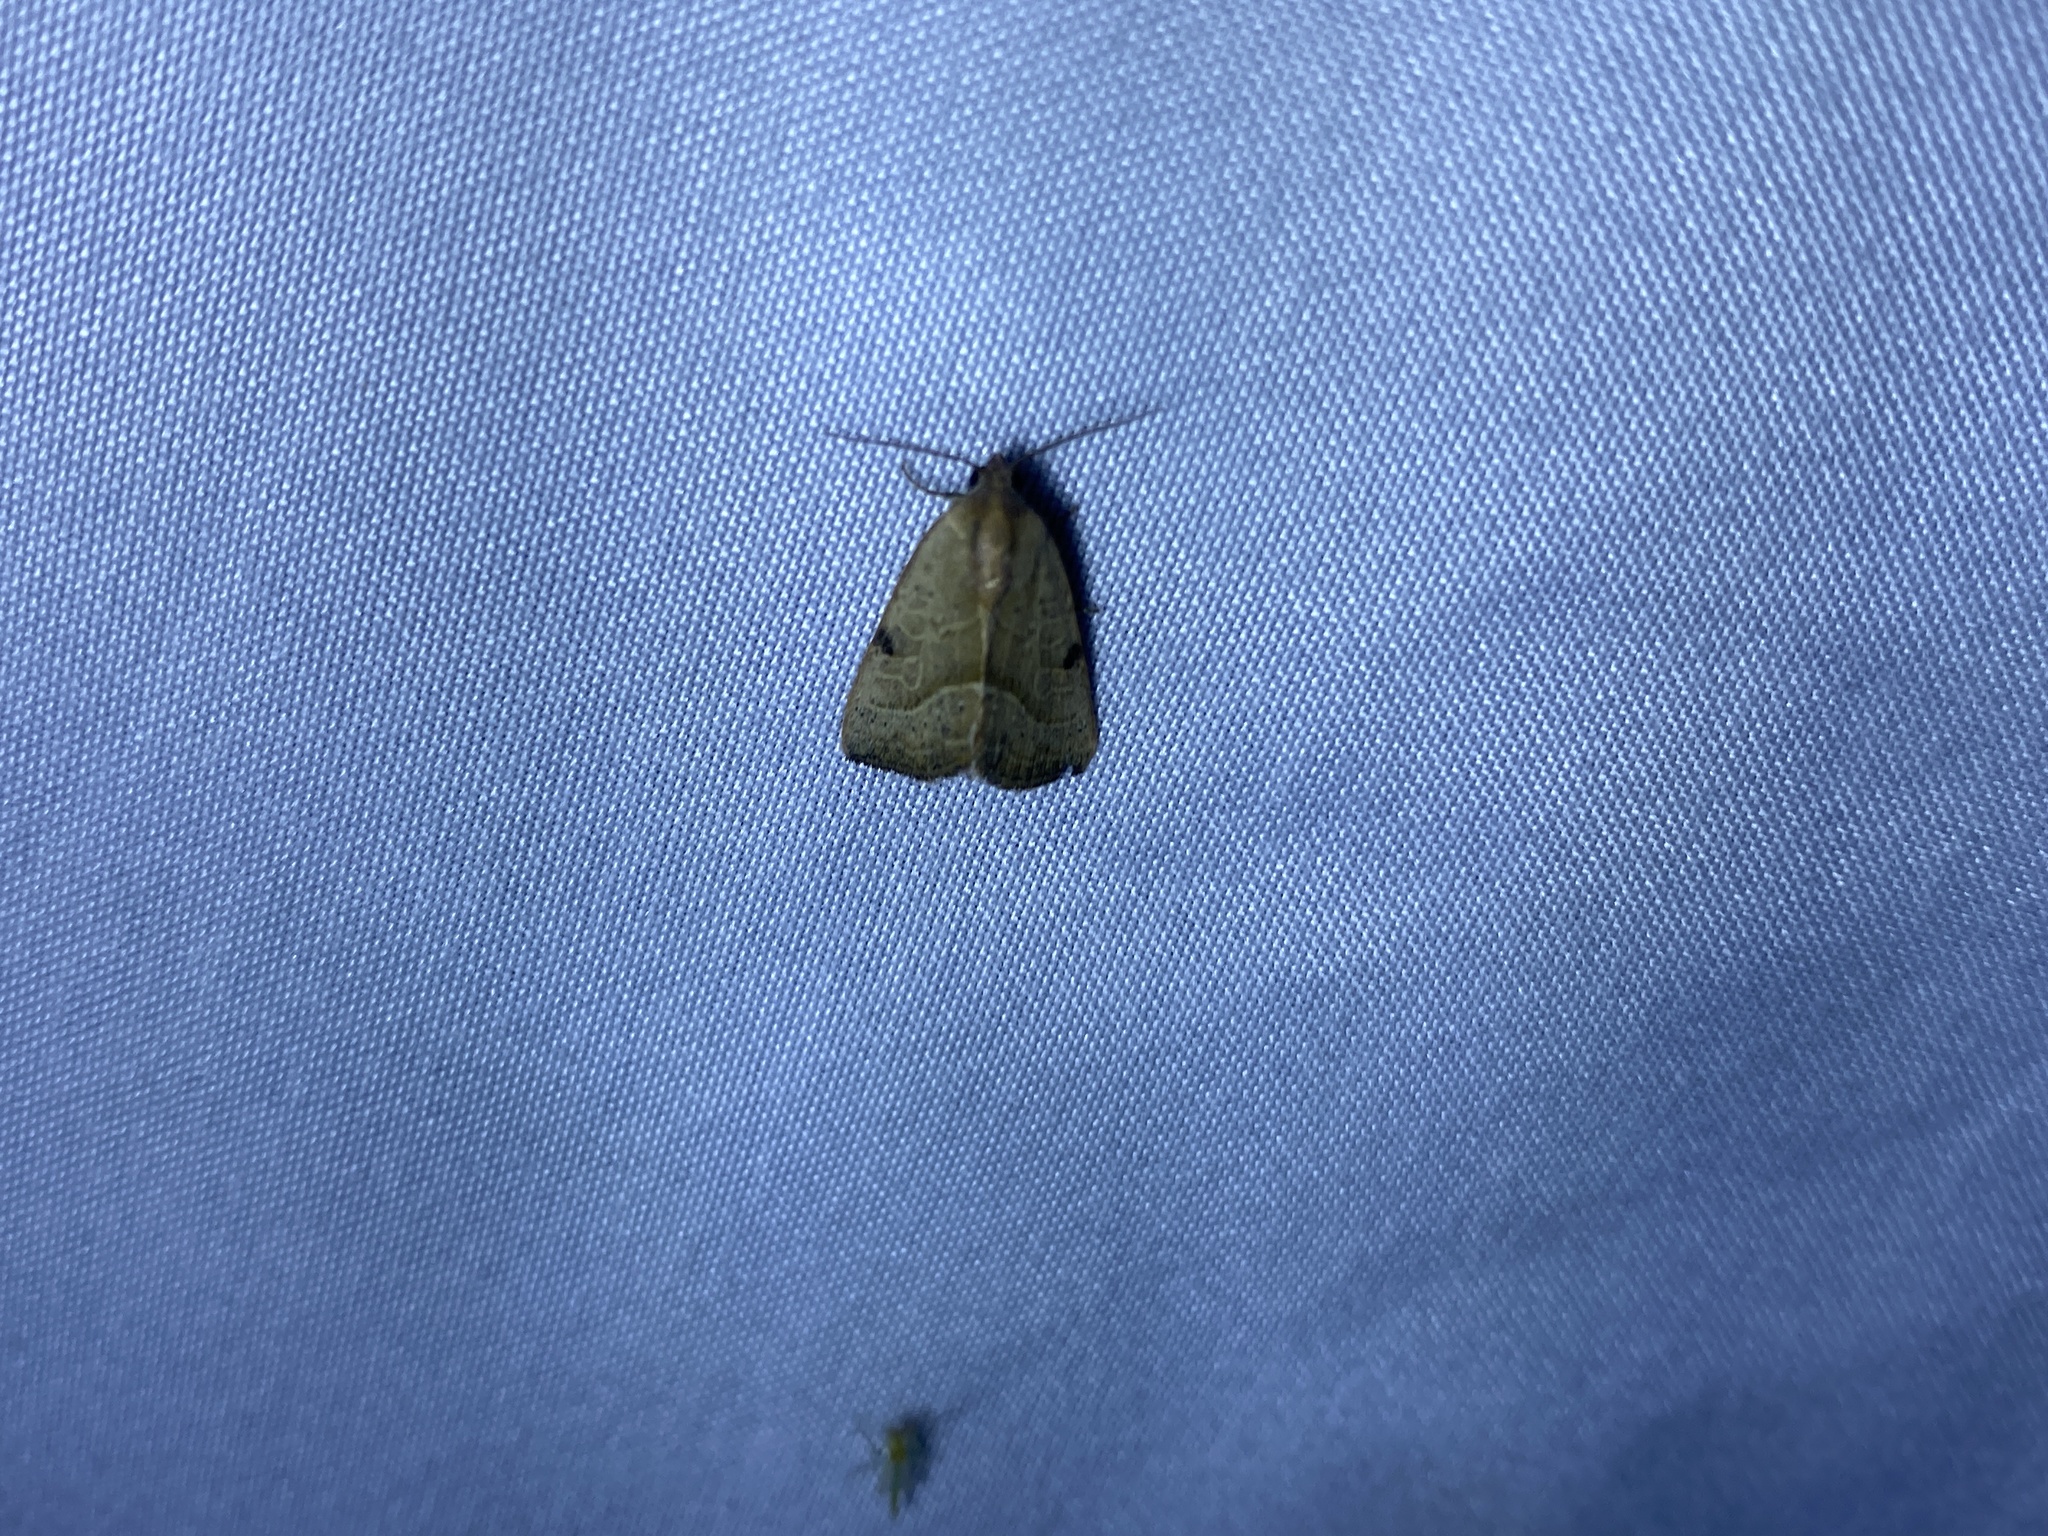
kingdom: Animalia
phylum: Arthropoda
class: Insecta
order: Lepidoptera
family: Noctuidae
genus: Galgula
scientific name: Galgula partita
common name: Wedgeling
